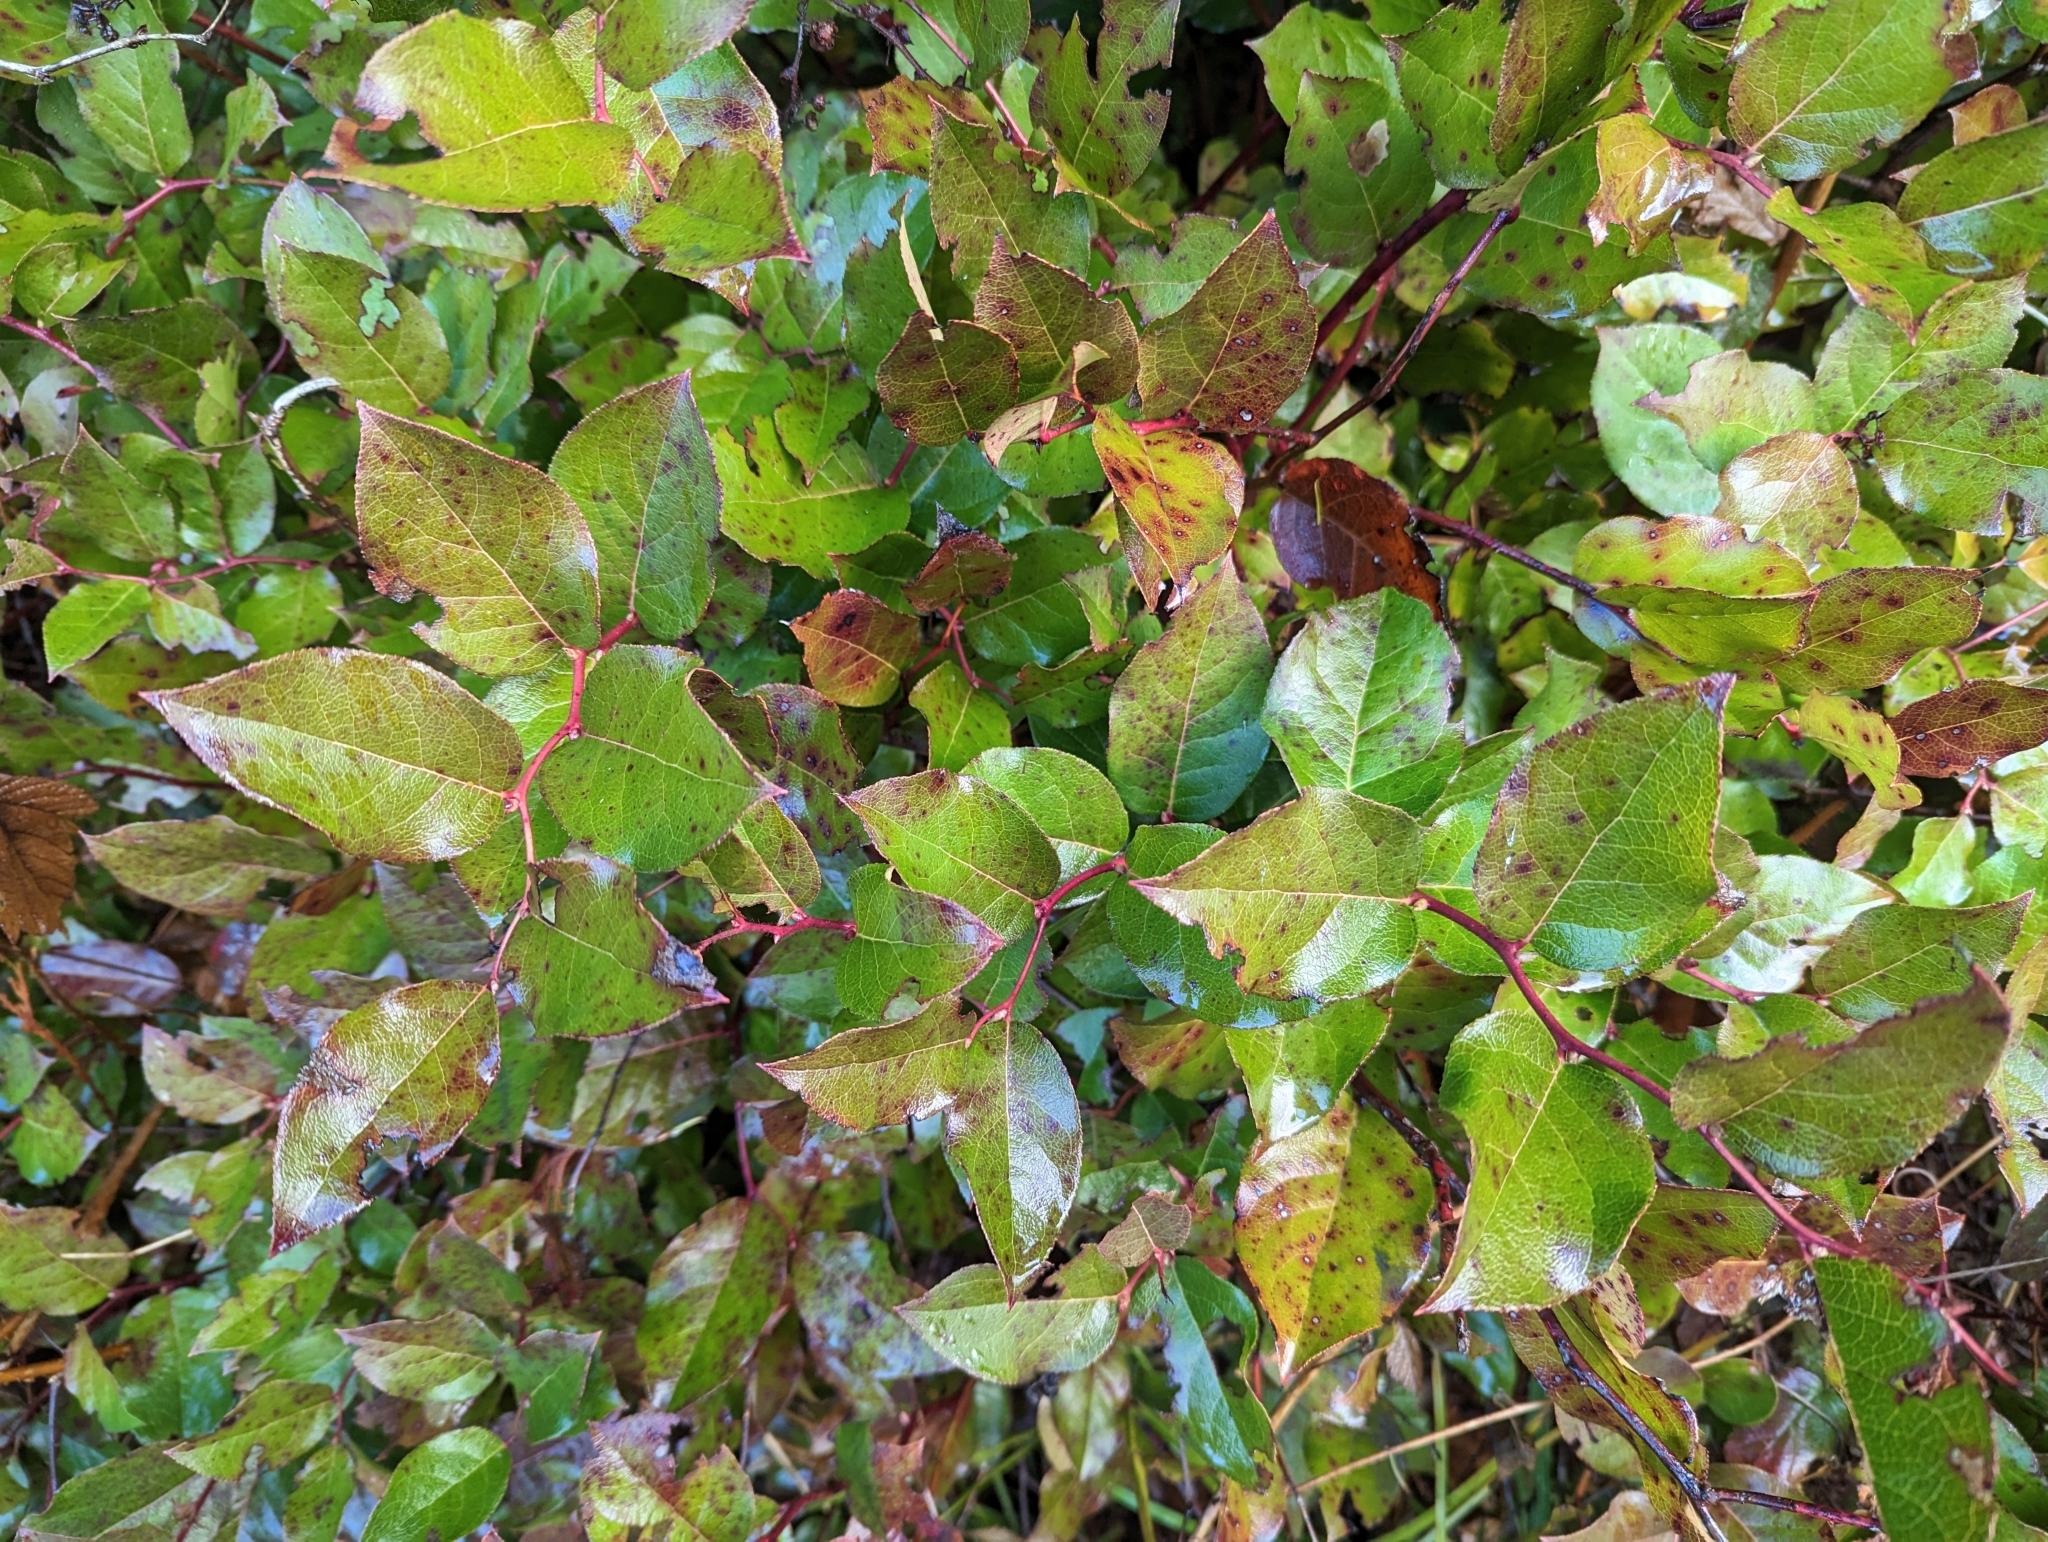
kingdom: Plantae
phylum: Tracheophyta
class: Magnoliopsida
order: Ericales
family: Ericaceae
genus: Gaultheria
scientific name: Gaultheria shallon
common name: Shallon
